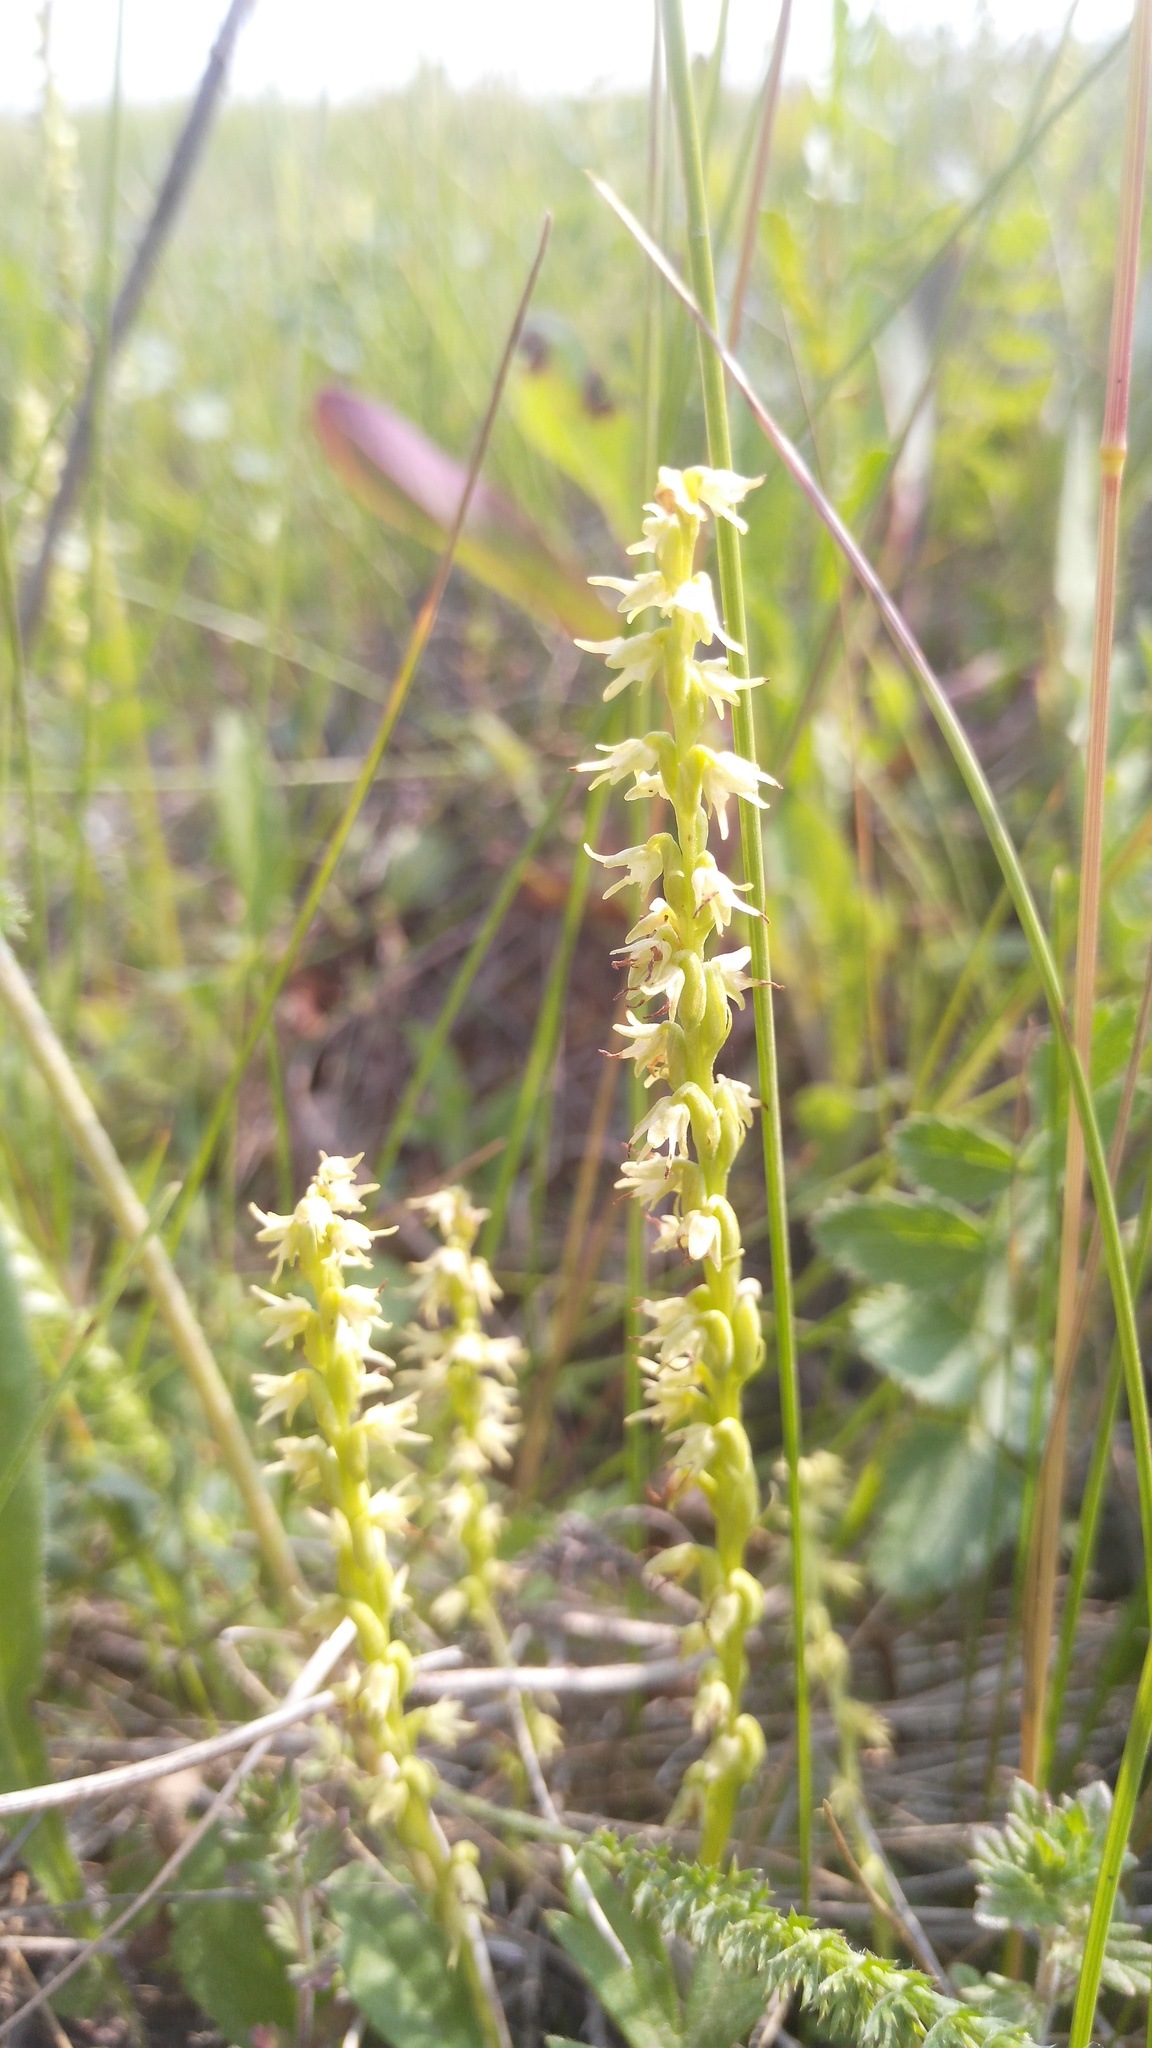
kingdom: Plantae
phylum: Tracheophyta
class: Liliopsida
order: Asparagales
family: Orchidaceae
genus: Herminium
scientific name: Herminium monorchis
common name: Musk orchid
